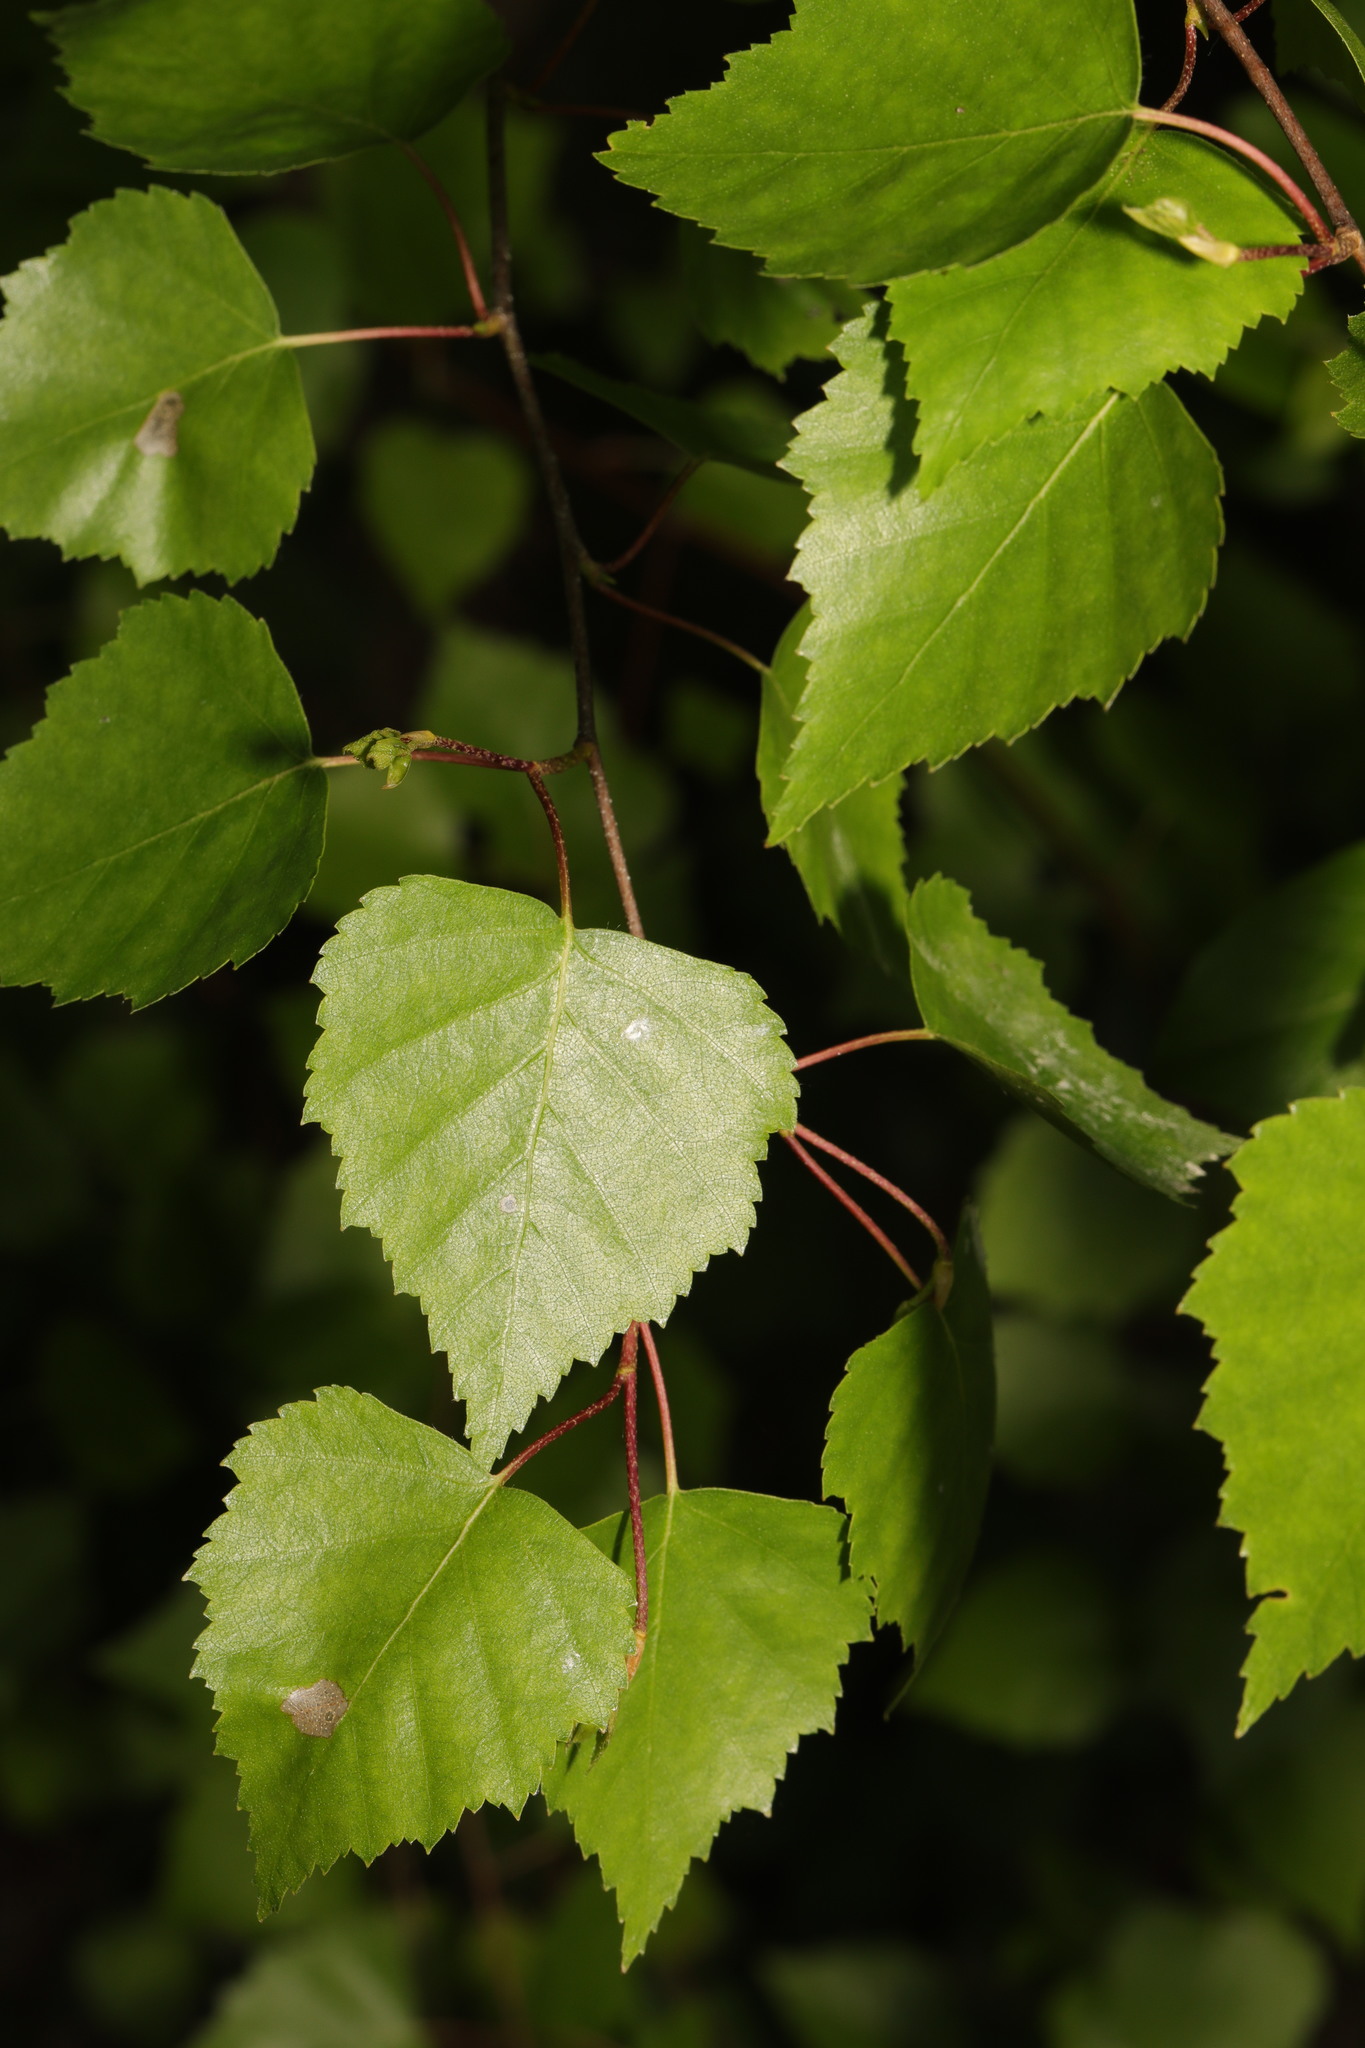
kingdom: Plantae
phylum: Tracheophyta
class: Magnoliopsida
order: Fagales
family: Betulaceae
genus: Betula
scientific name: Betula pendula
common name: Silver birch
